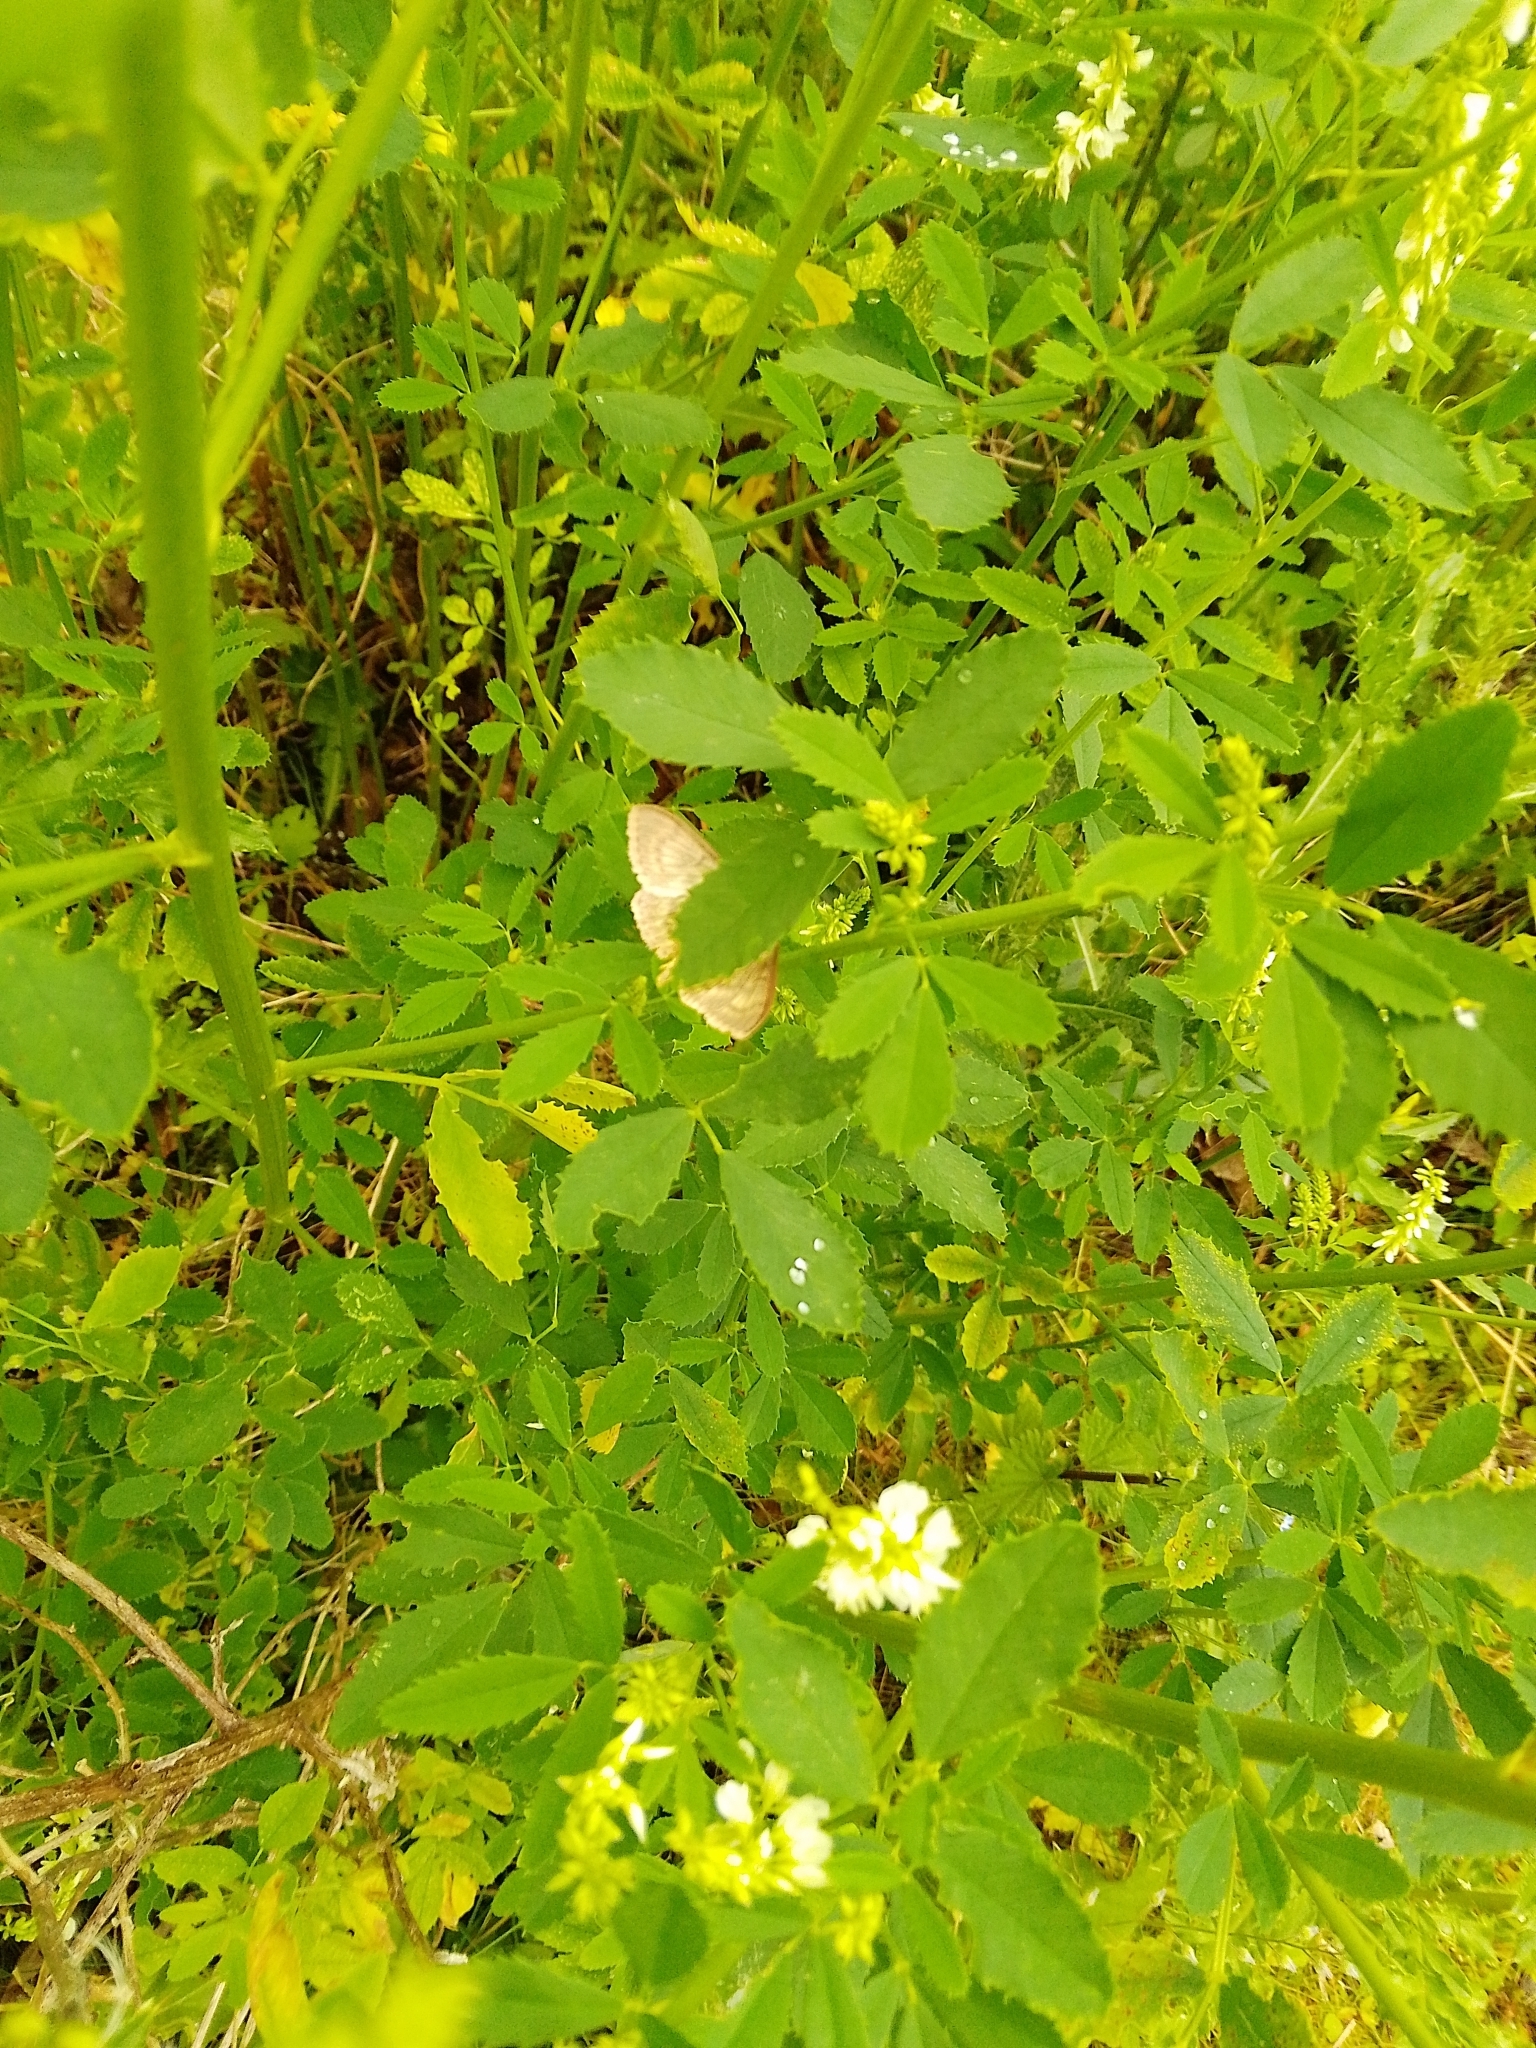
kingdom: Animalia
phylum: Arthropoda
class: Insecta
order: Lepidoptera
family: Crambidae
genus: Patania
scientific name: Patania ruralis
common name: Mother of pearl
